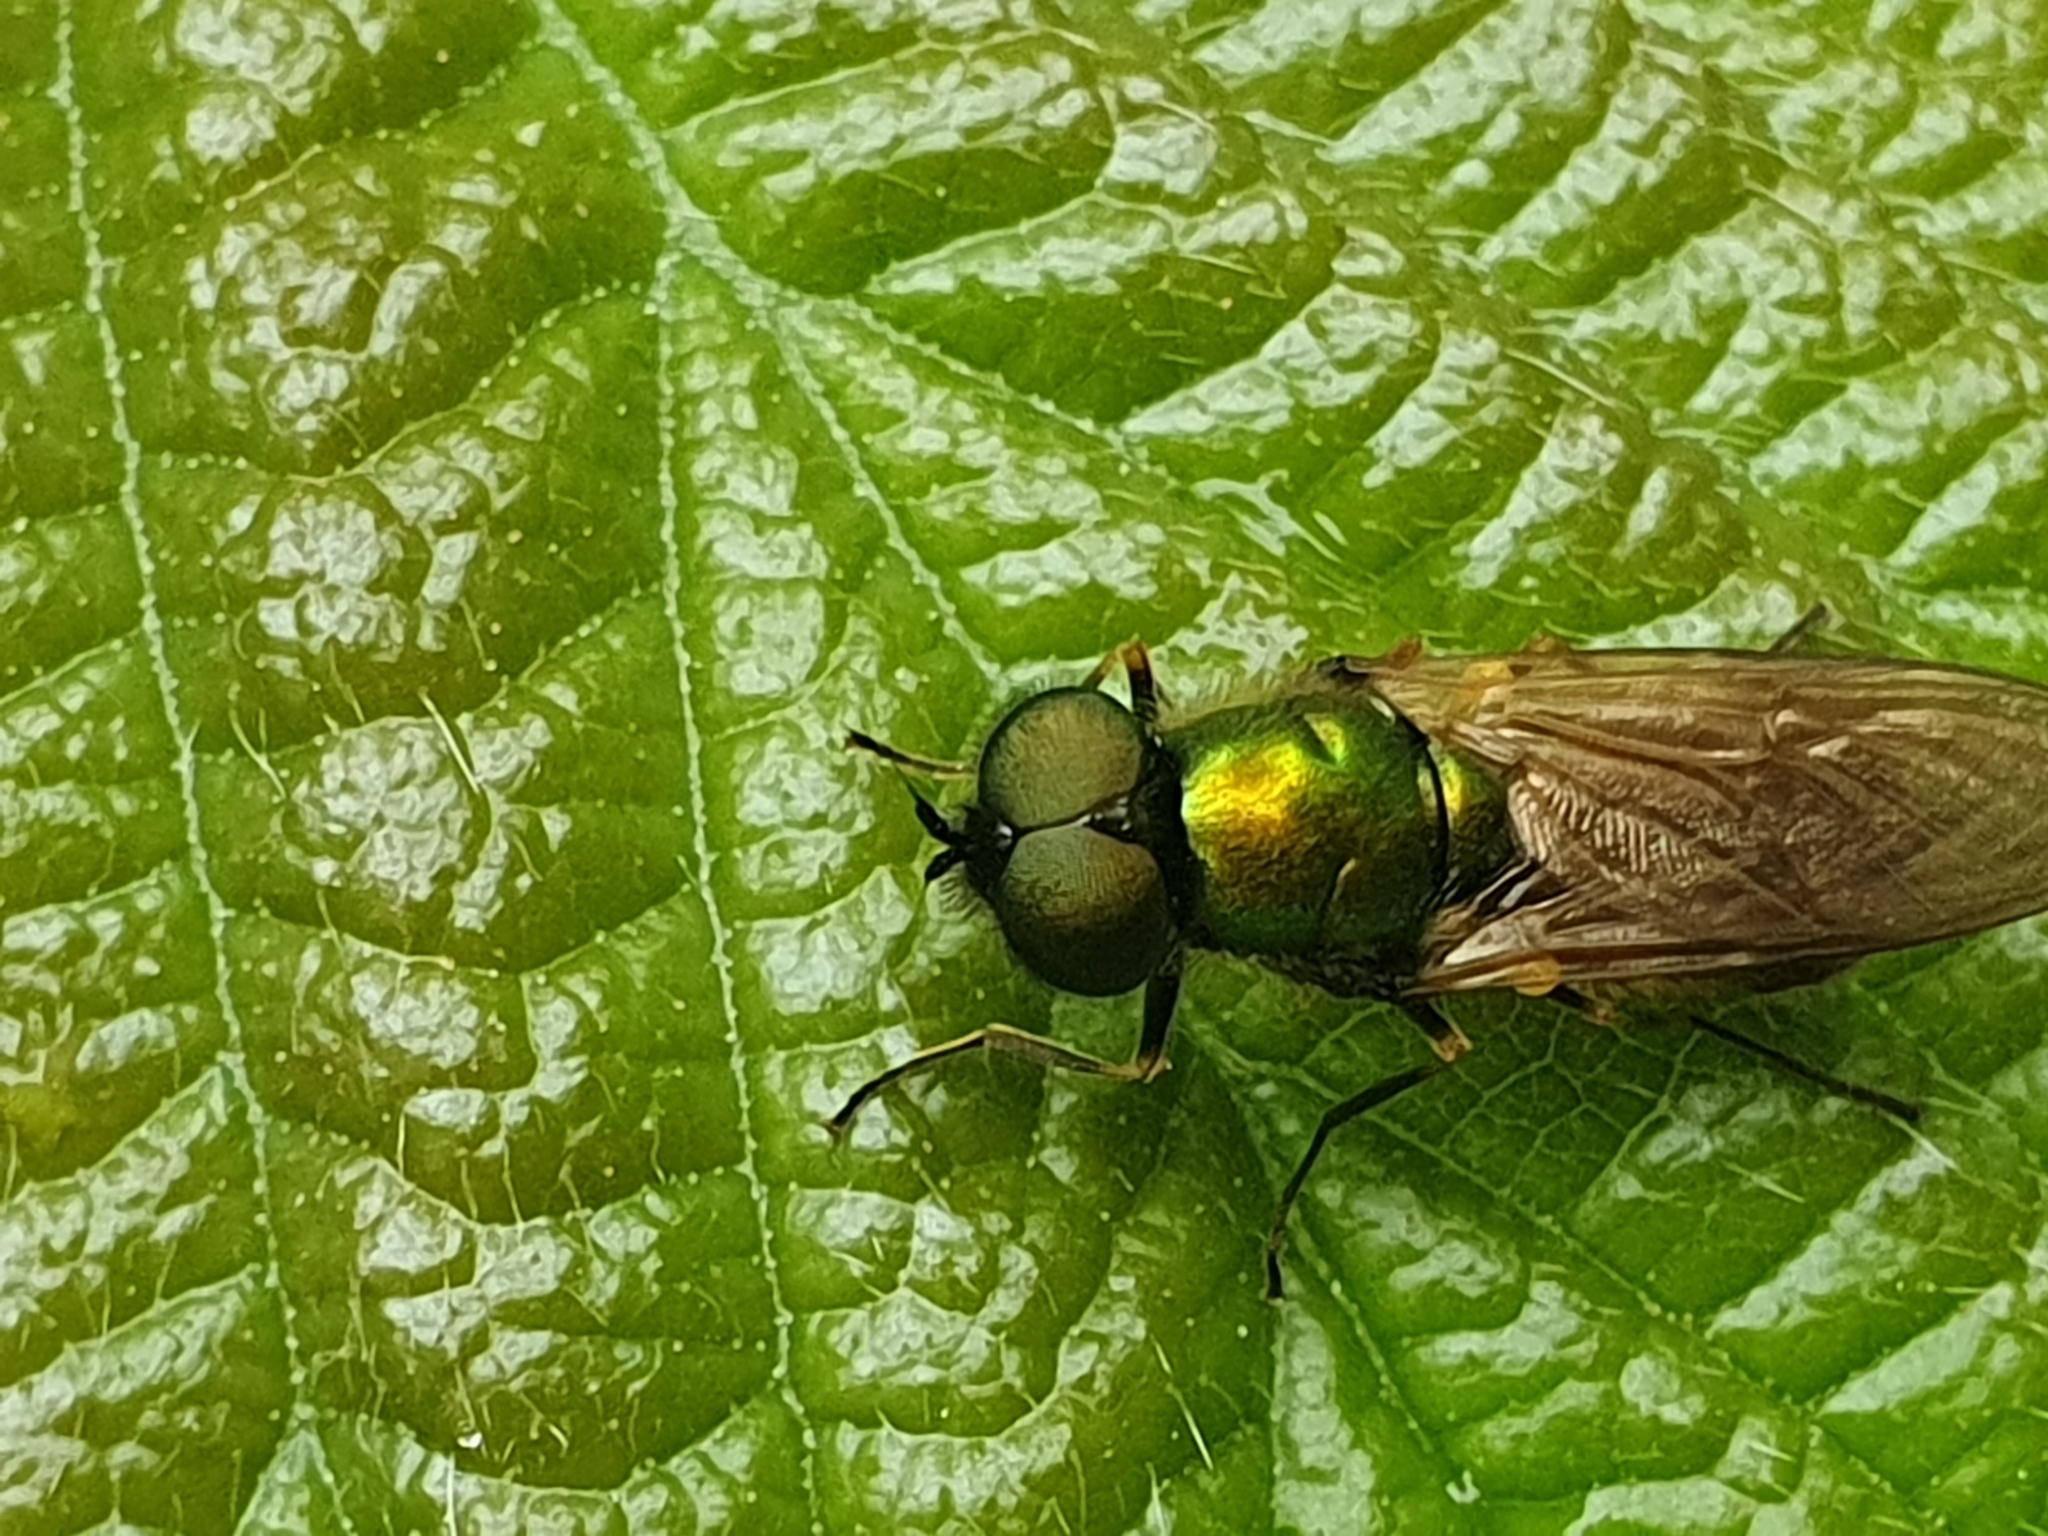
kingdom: Animalia
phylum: Arthropoda
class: Insecta
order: Diptera
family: Stratiomyidae
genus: Chloromyia
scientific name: Chloromyia formosa
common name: Soldier fly
